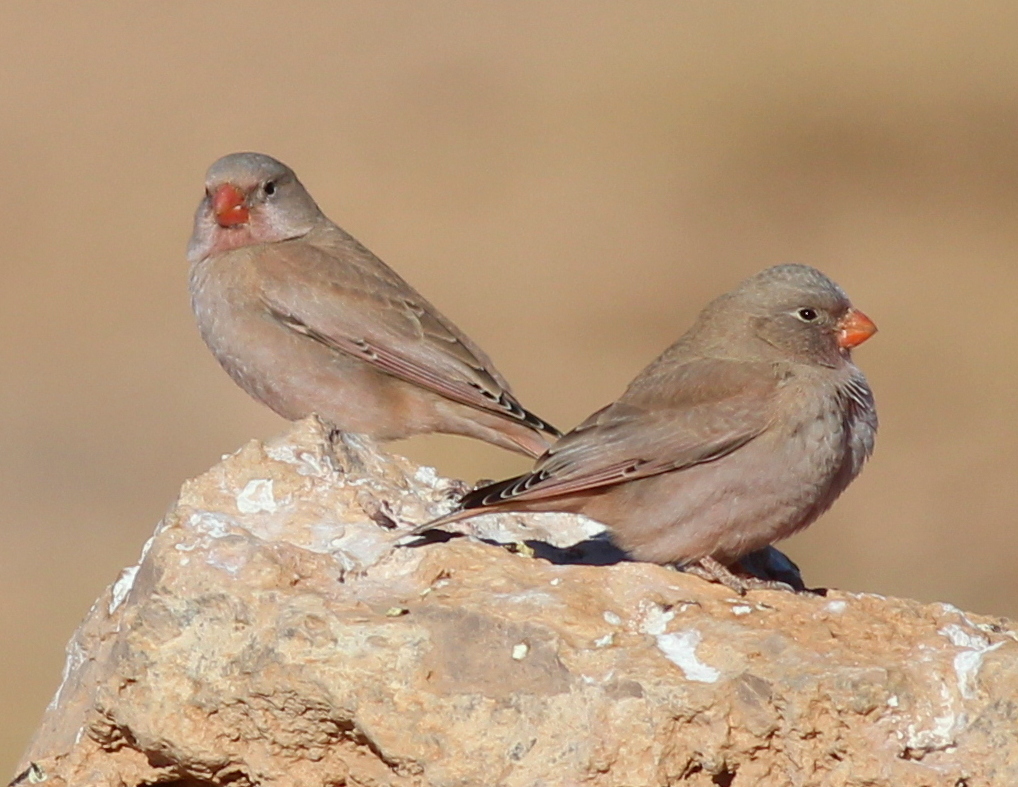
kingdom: Animalia
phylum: Chordata
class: Aves
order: Passeriformes
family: Fringillidae
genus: Bucanetes
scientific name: Bucanetes githagineus
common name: Trumpeter finch
